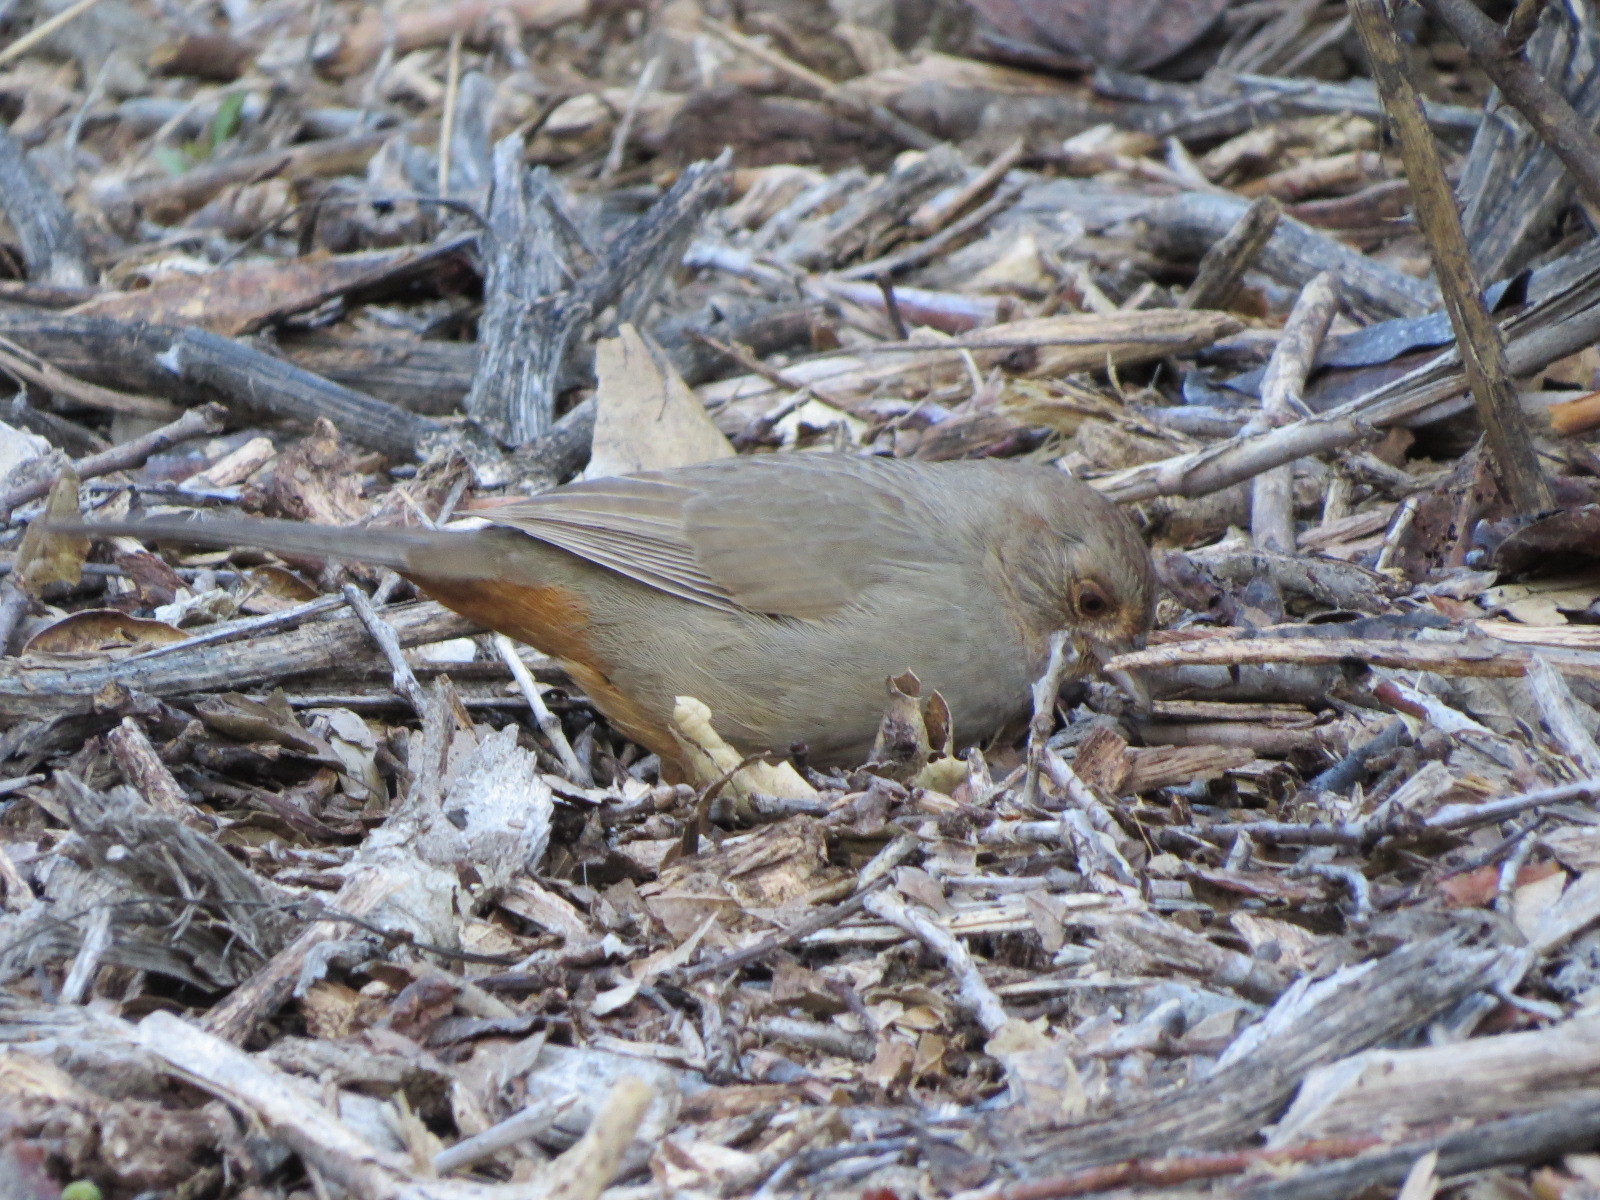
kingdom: Animalia
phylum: Chordata
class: Aves
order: Passeriformes
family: Passerellidae
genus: Melozone
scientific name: Melozone crissalis
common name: California towhee
